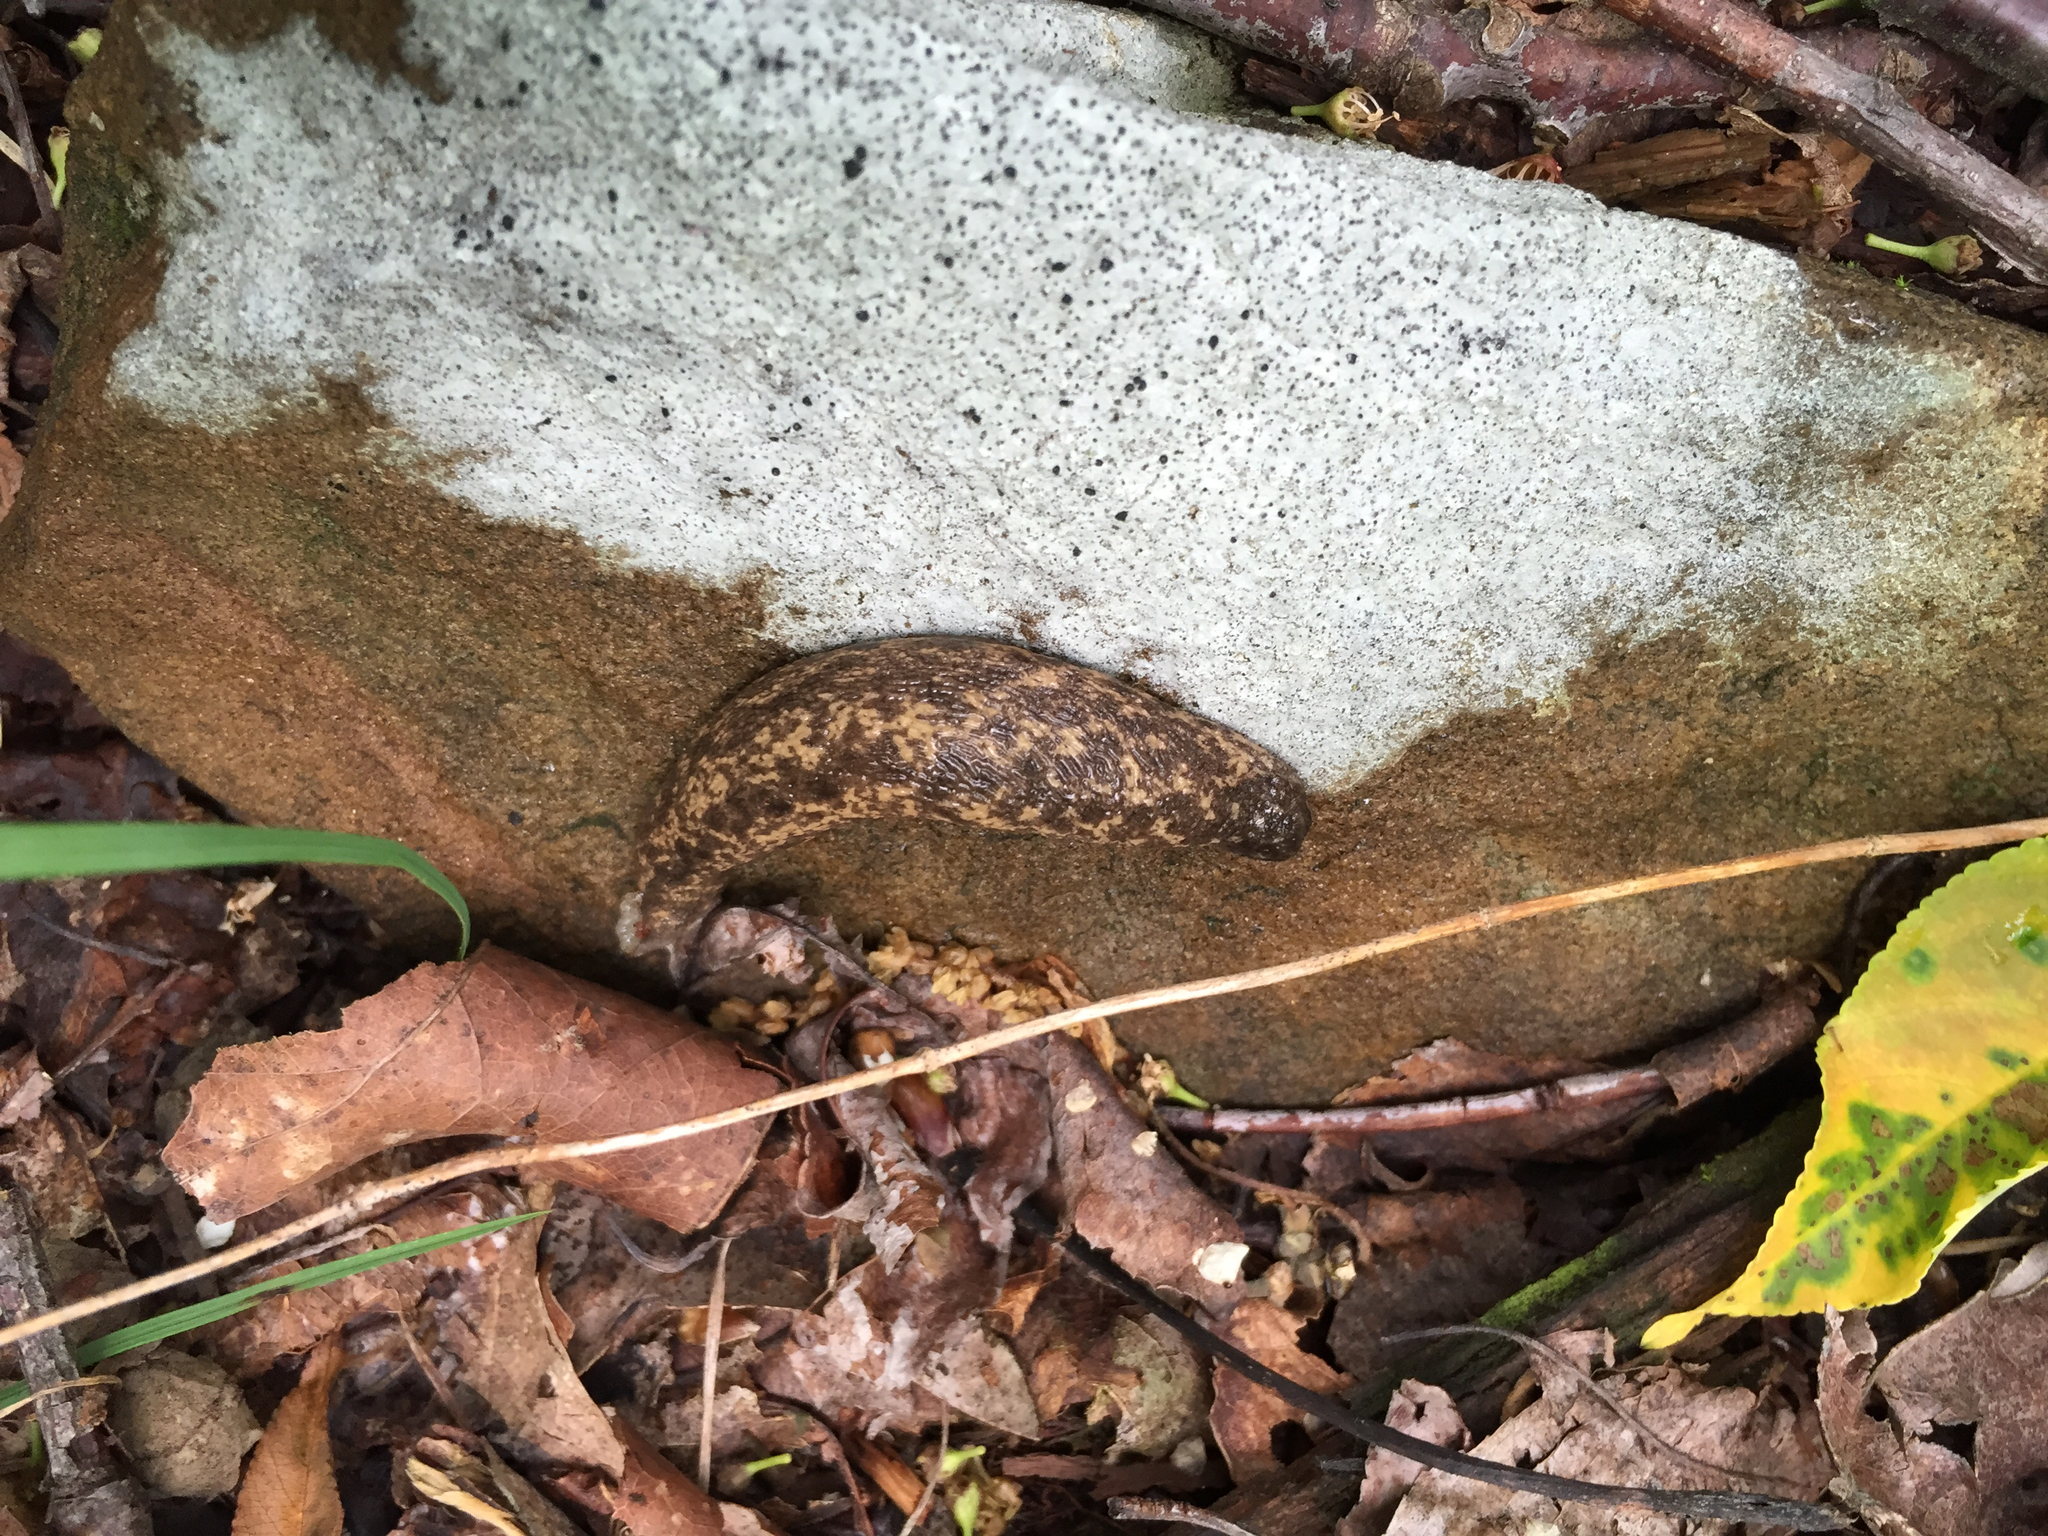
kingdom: Animalia
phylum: Mollusca
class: Gastropoda
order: Stylommatophora
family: Philomycidae
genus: Philomycus
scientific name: Philomycus flexuolaris
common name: Winding mantleslug
